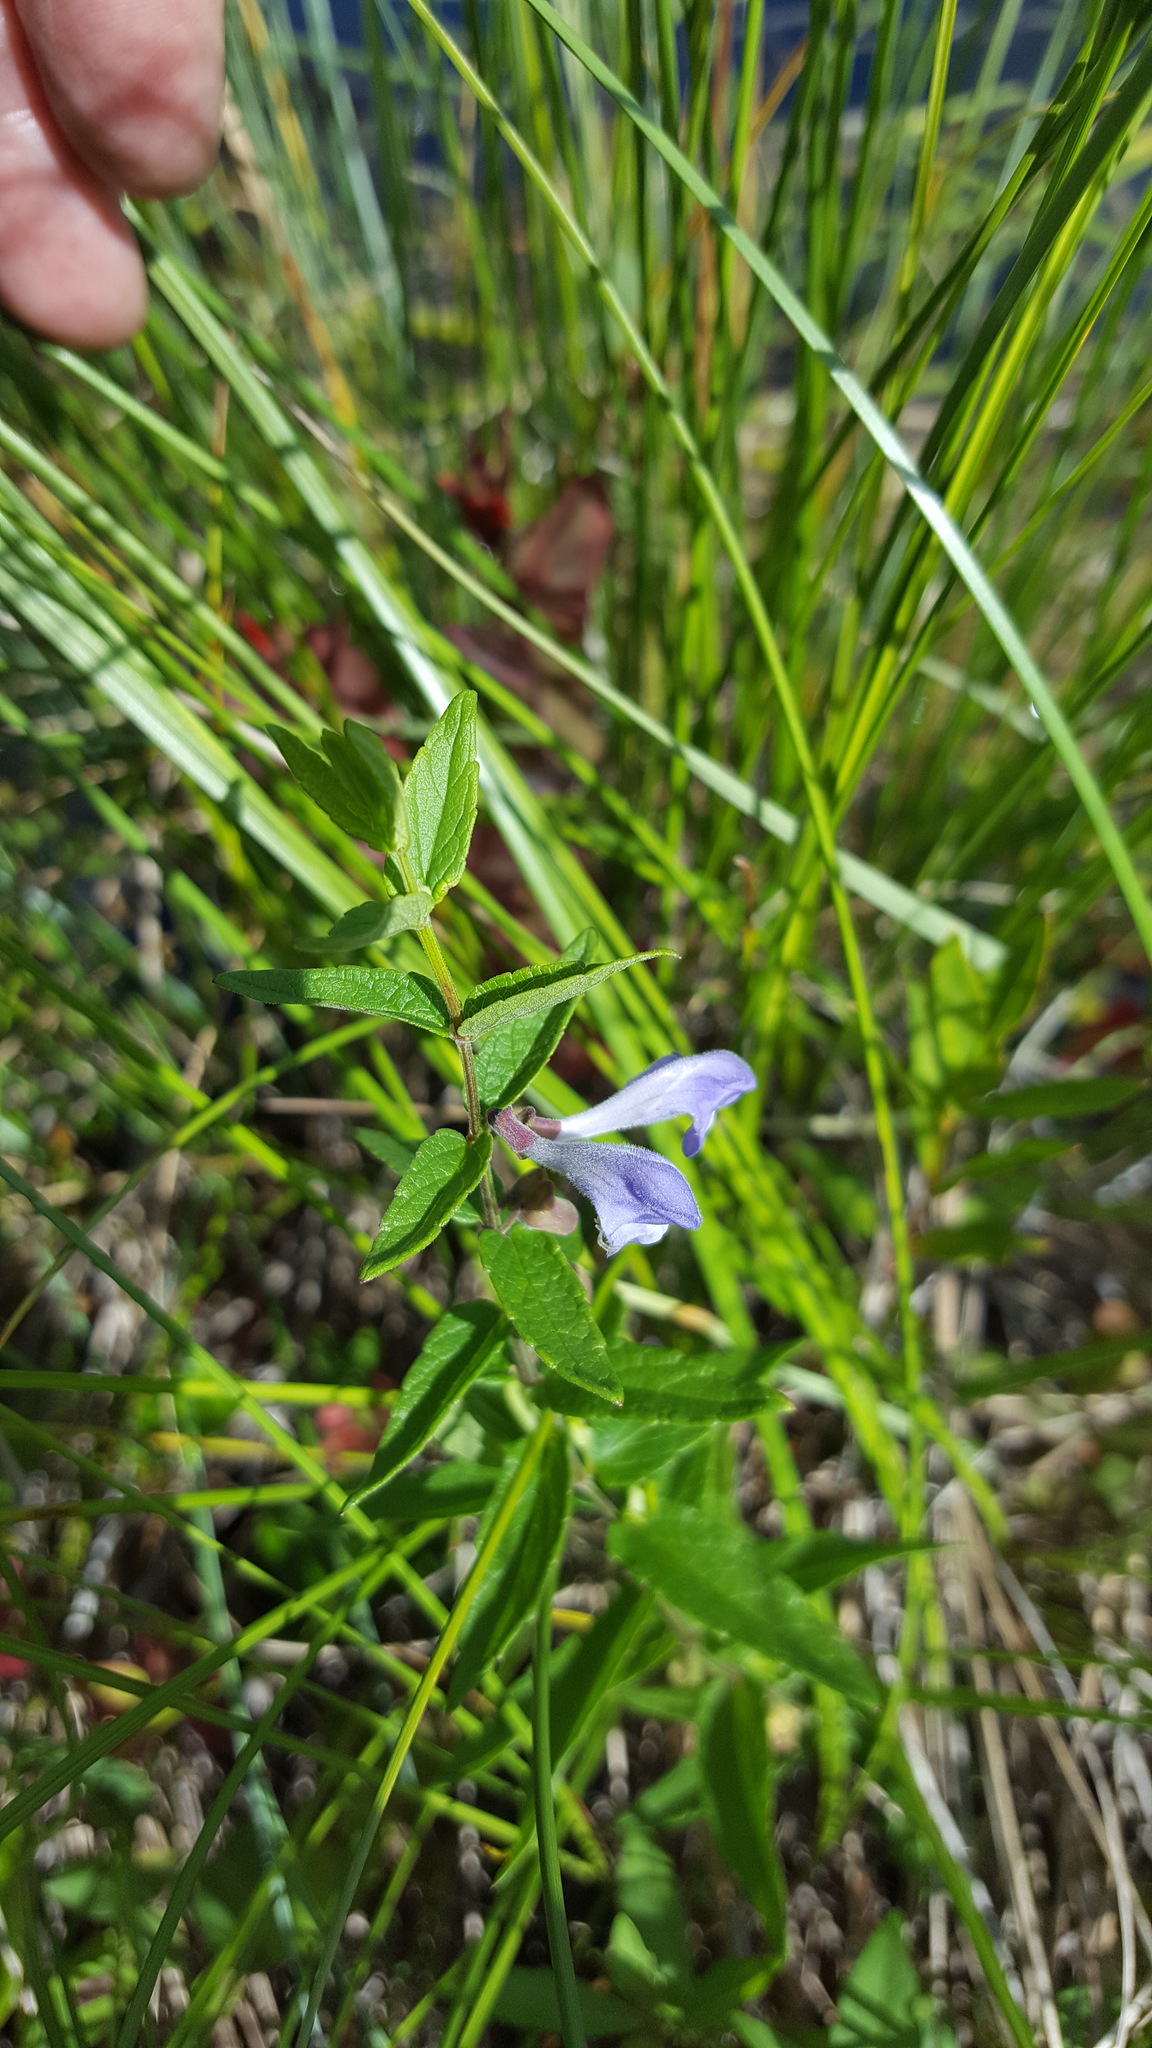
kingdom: Plantae
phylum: Tracheophyta
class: Magnoliopsida
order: Lamiales
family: Lamiaceae
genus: Scutellaria
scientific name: Scutellaria galericulata
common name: Skullcap
